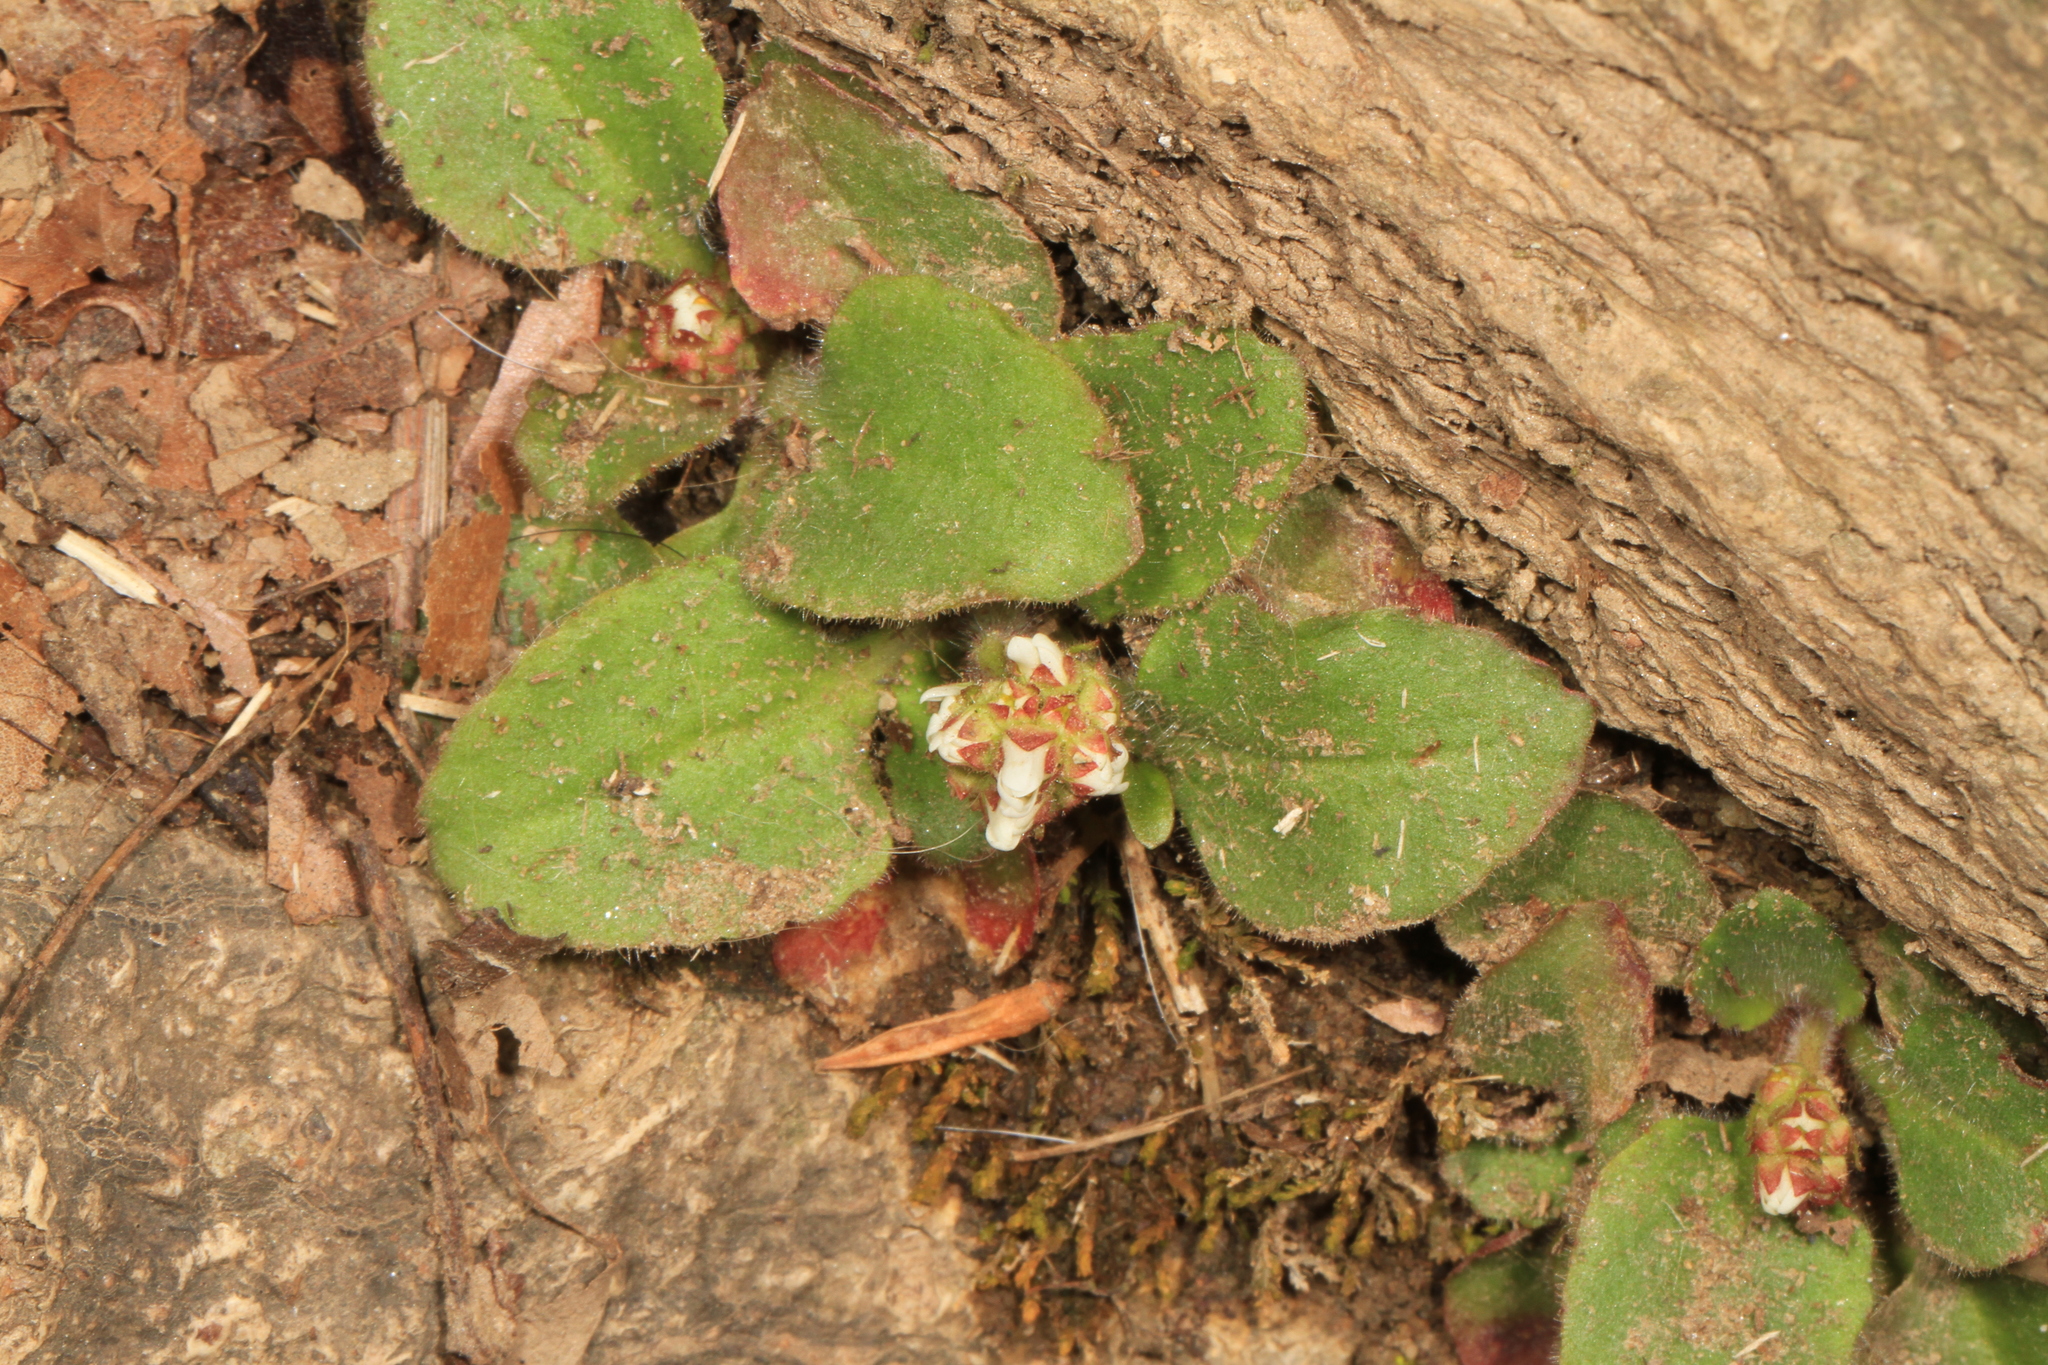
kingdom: Plantae
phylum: Tracheophyta
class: Magnoliopsida
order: Saxifragales
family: Saxifragaceae
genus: Micranthes
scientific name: Micranthes virginiensis
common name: Early saxifrage
